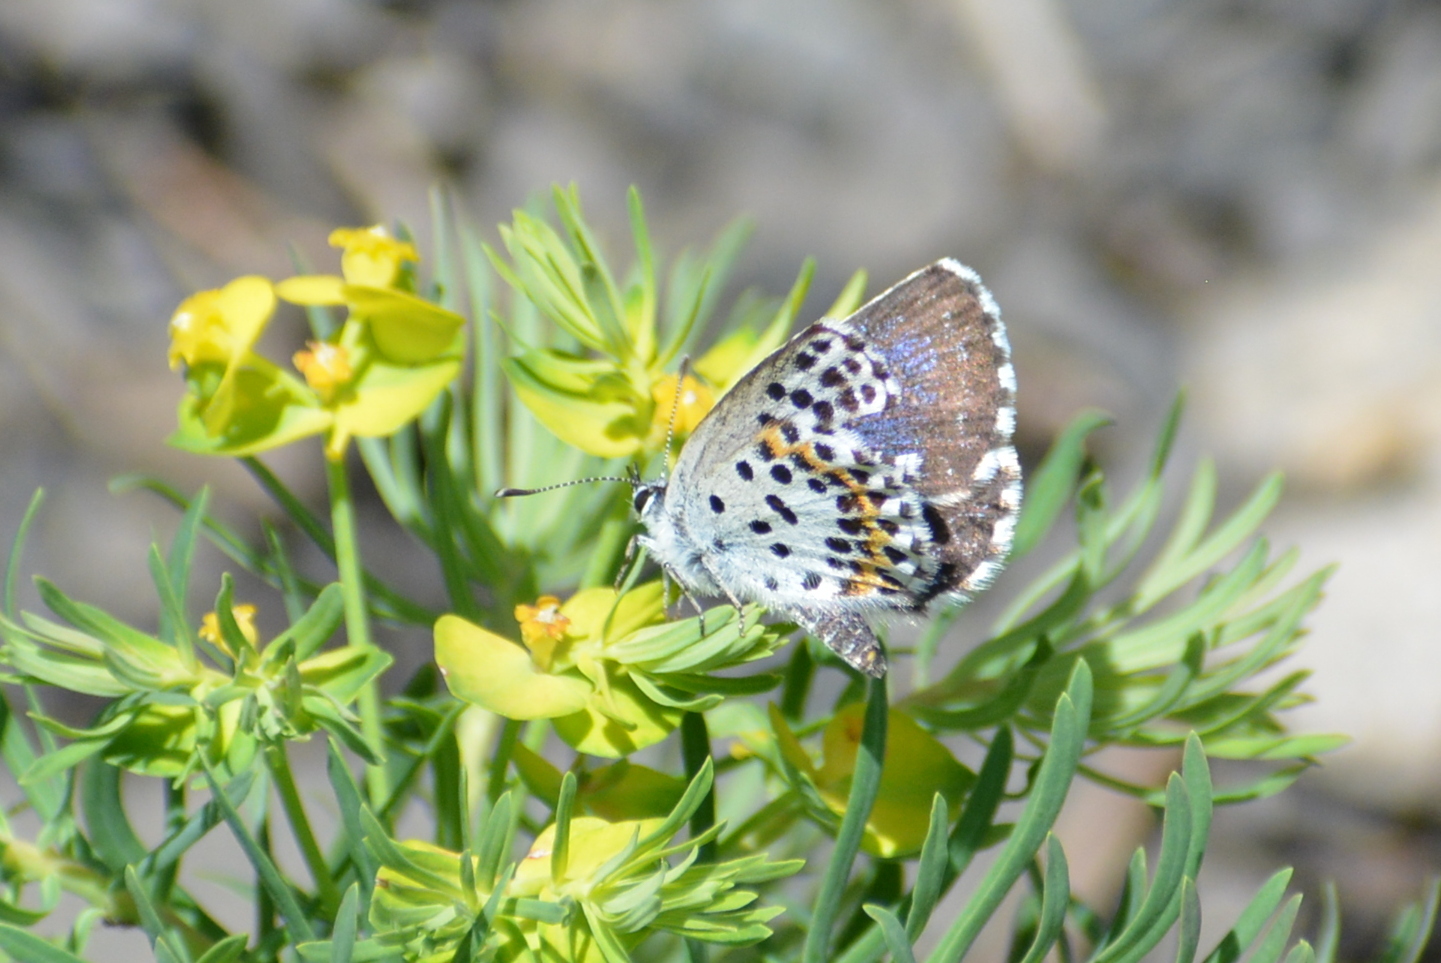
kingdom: Animalia
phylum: Arthropoda
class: Insecta
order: Lepidoptera
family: Lycaenidae
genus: Scolitantides
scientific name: Scolitantides orion
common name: Chequered blue
